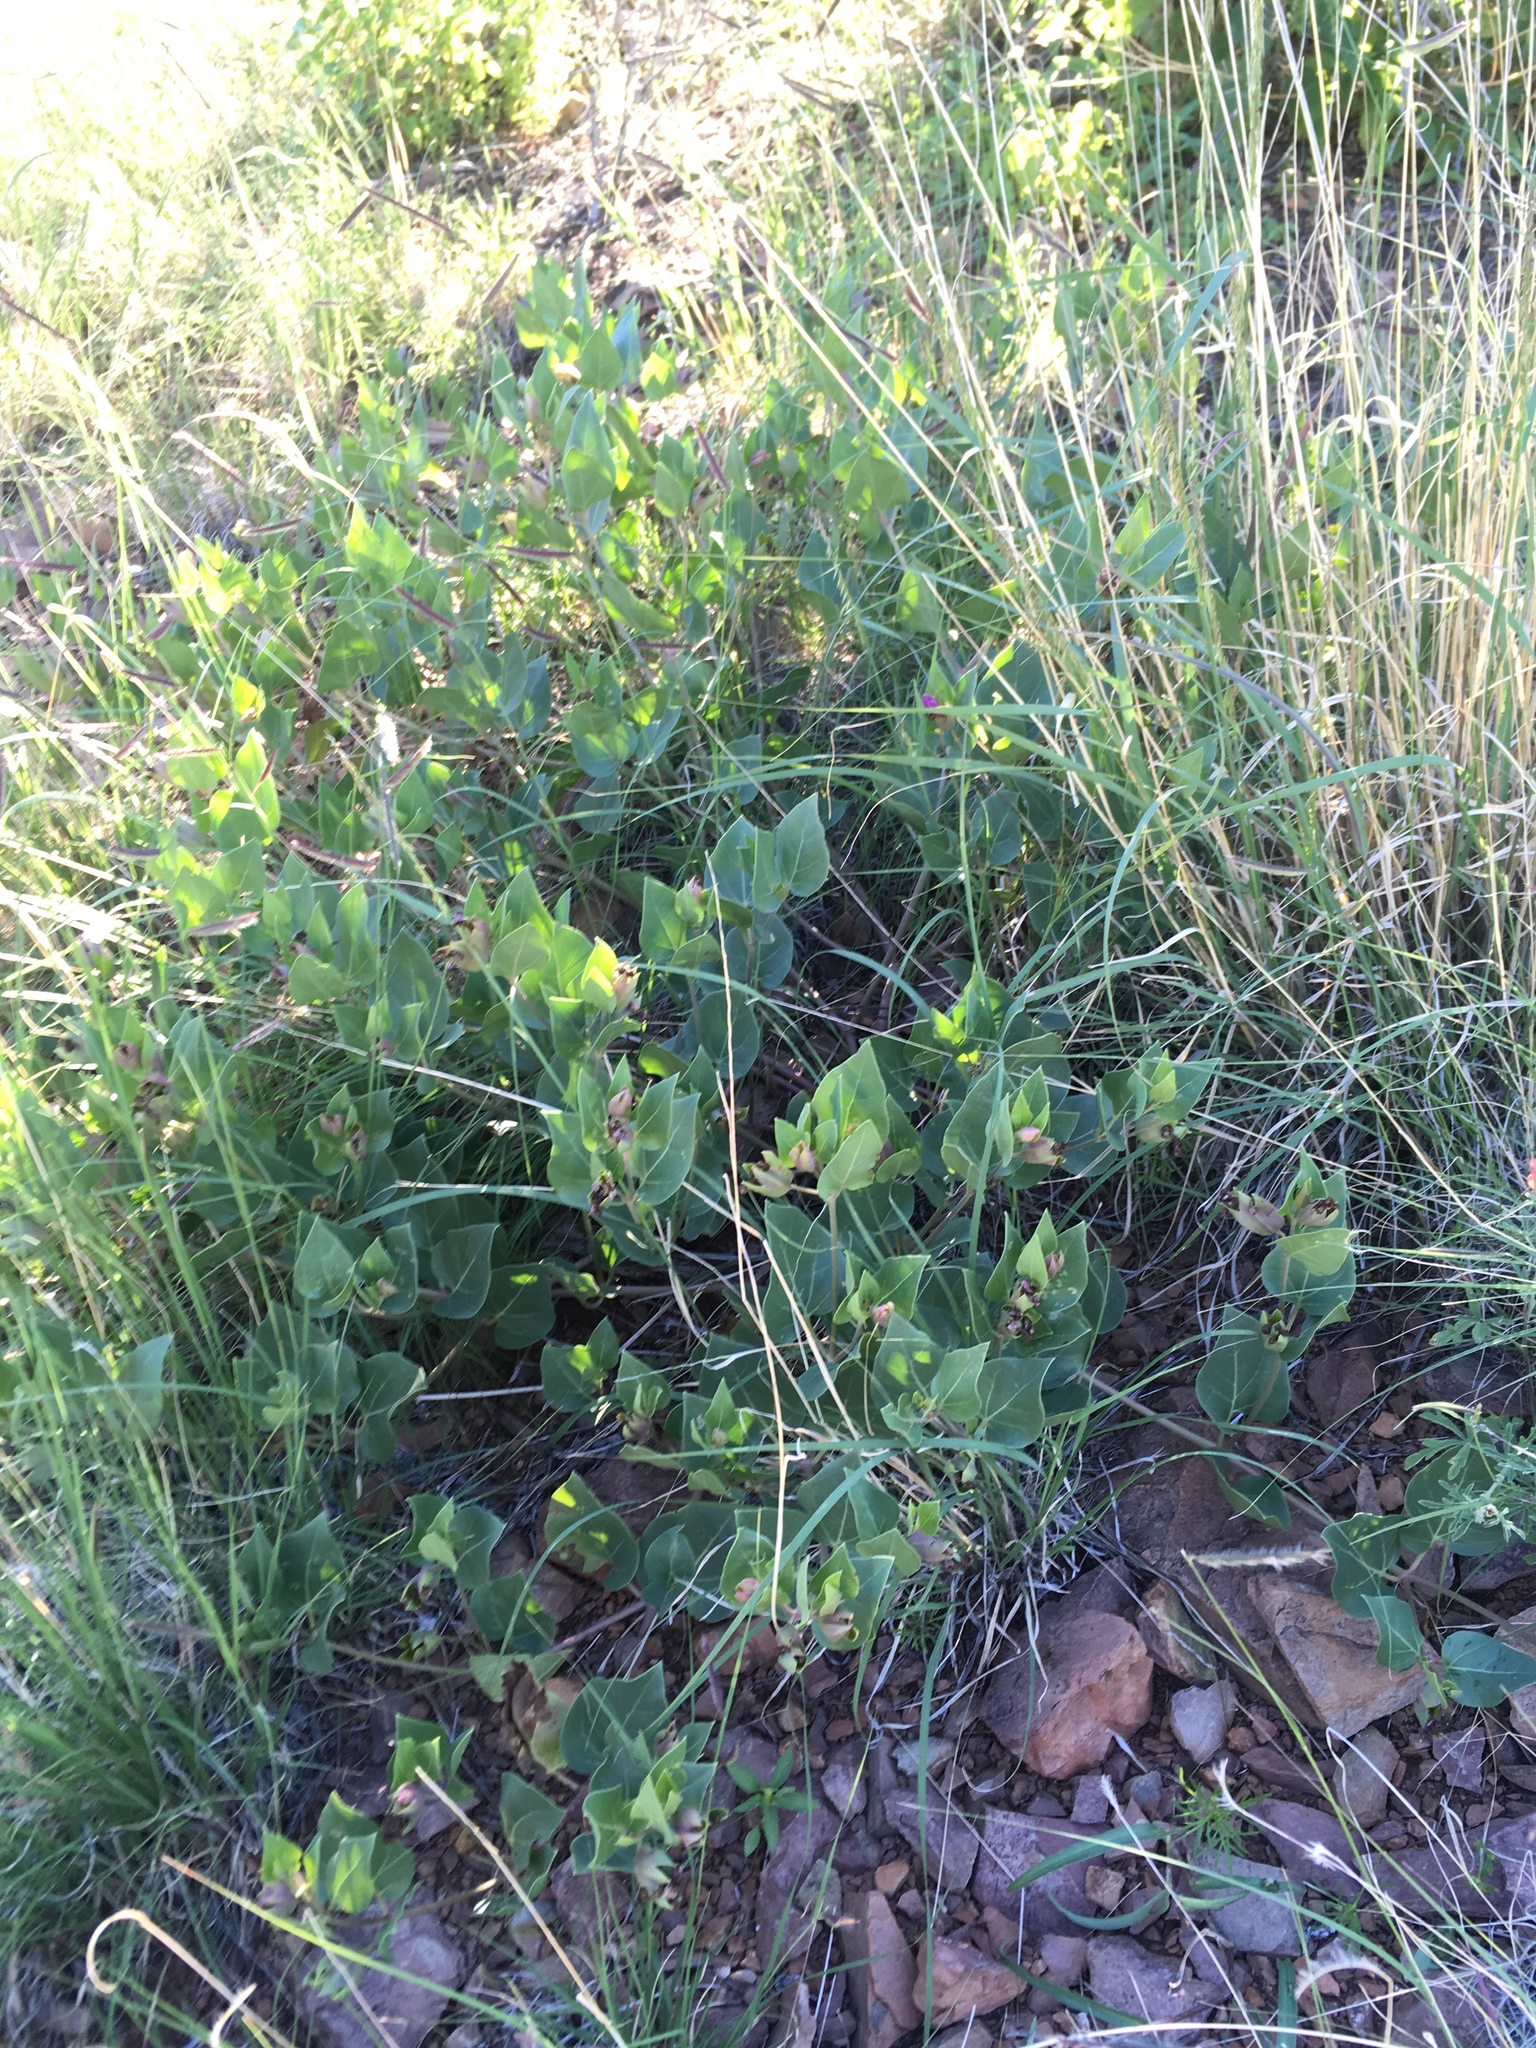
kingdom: Plantae
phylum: Tracheophyta
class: Magnoliopsida
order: Caryophyllales
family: Nyctaginaceae
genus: Mirabilis
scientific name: Mirabilis multiflora
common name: Froebel's four-o'clock
